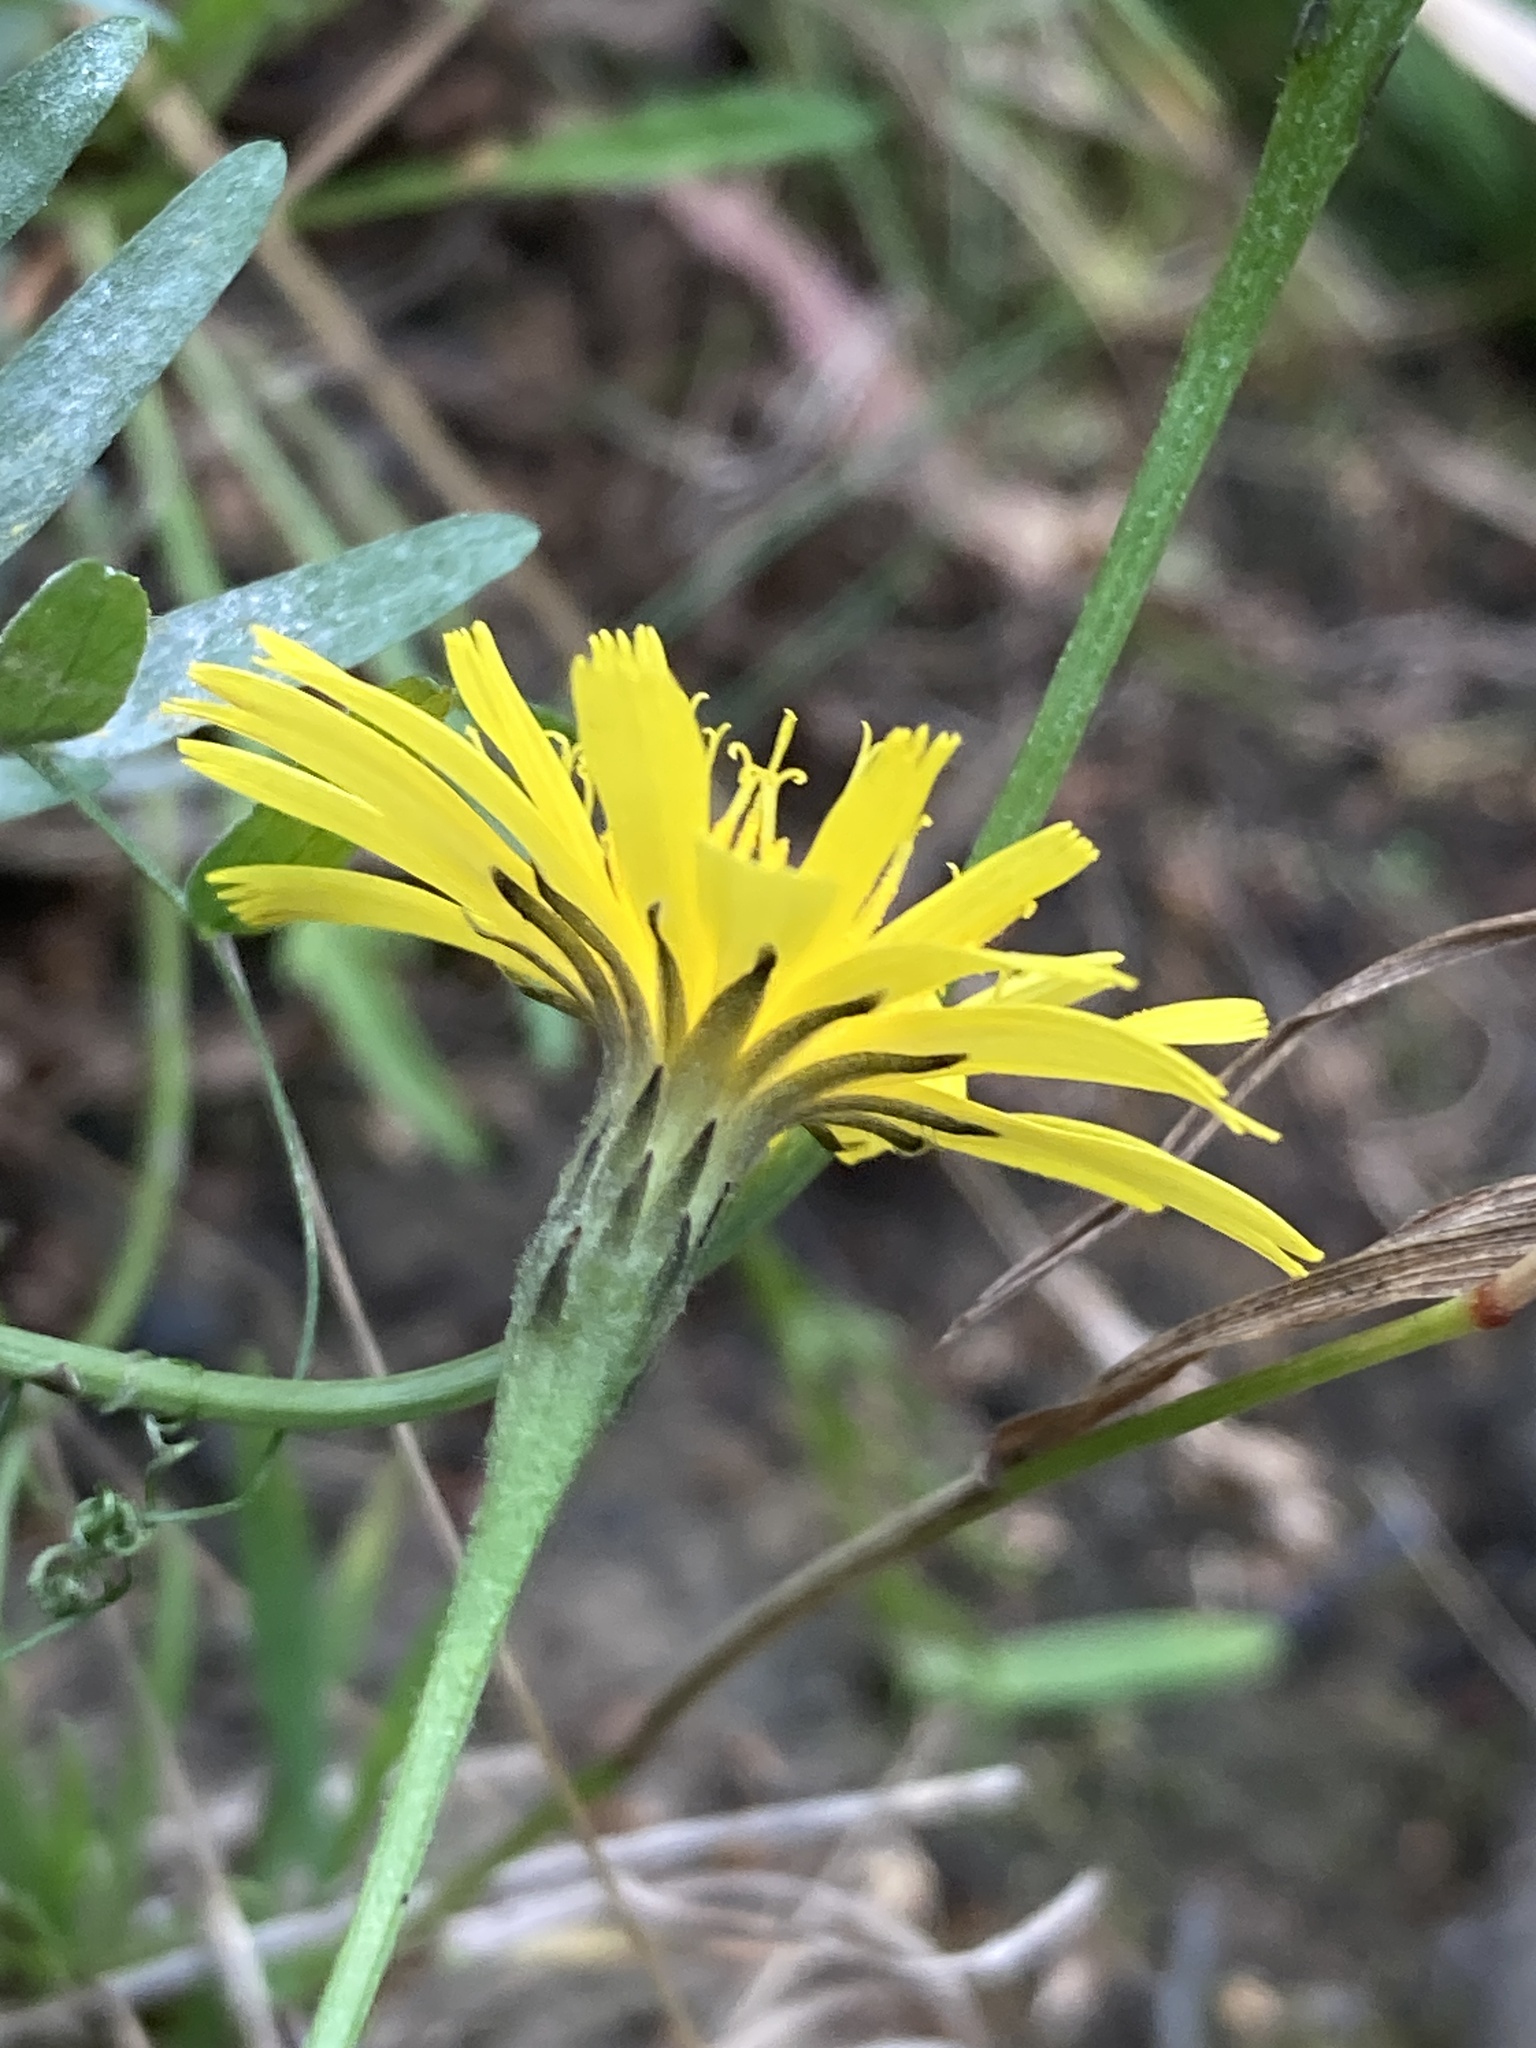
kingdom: Plantae
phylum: Tracheophyta
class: Magnoliopsida
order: Asterales
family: Asteraceae
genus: Scorzoneroides
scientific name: Scorzoneroides autumnalis
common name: Autumn hawkbit
